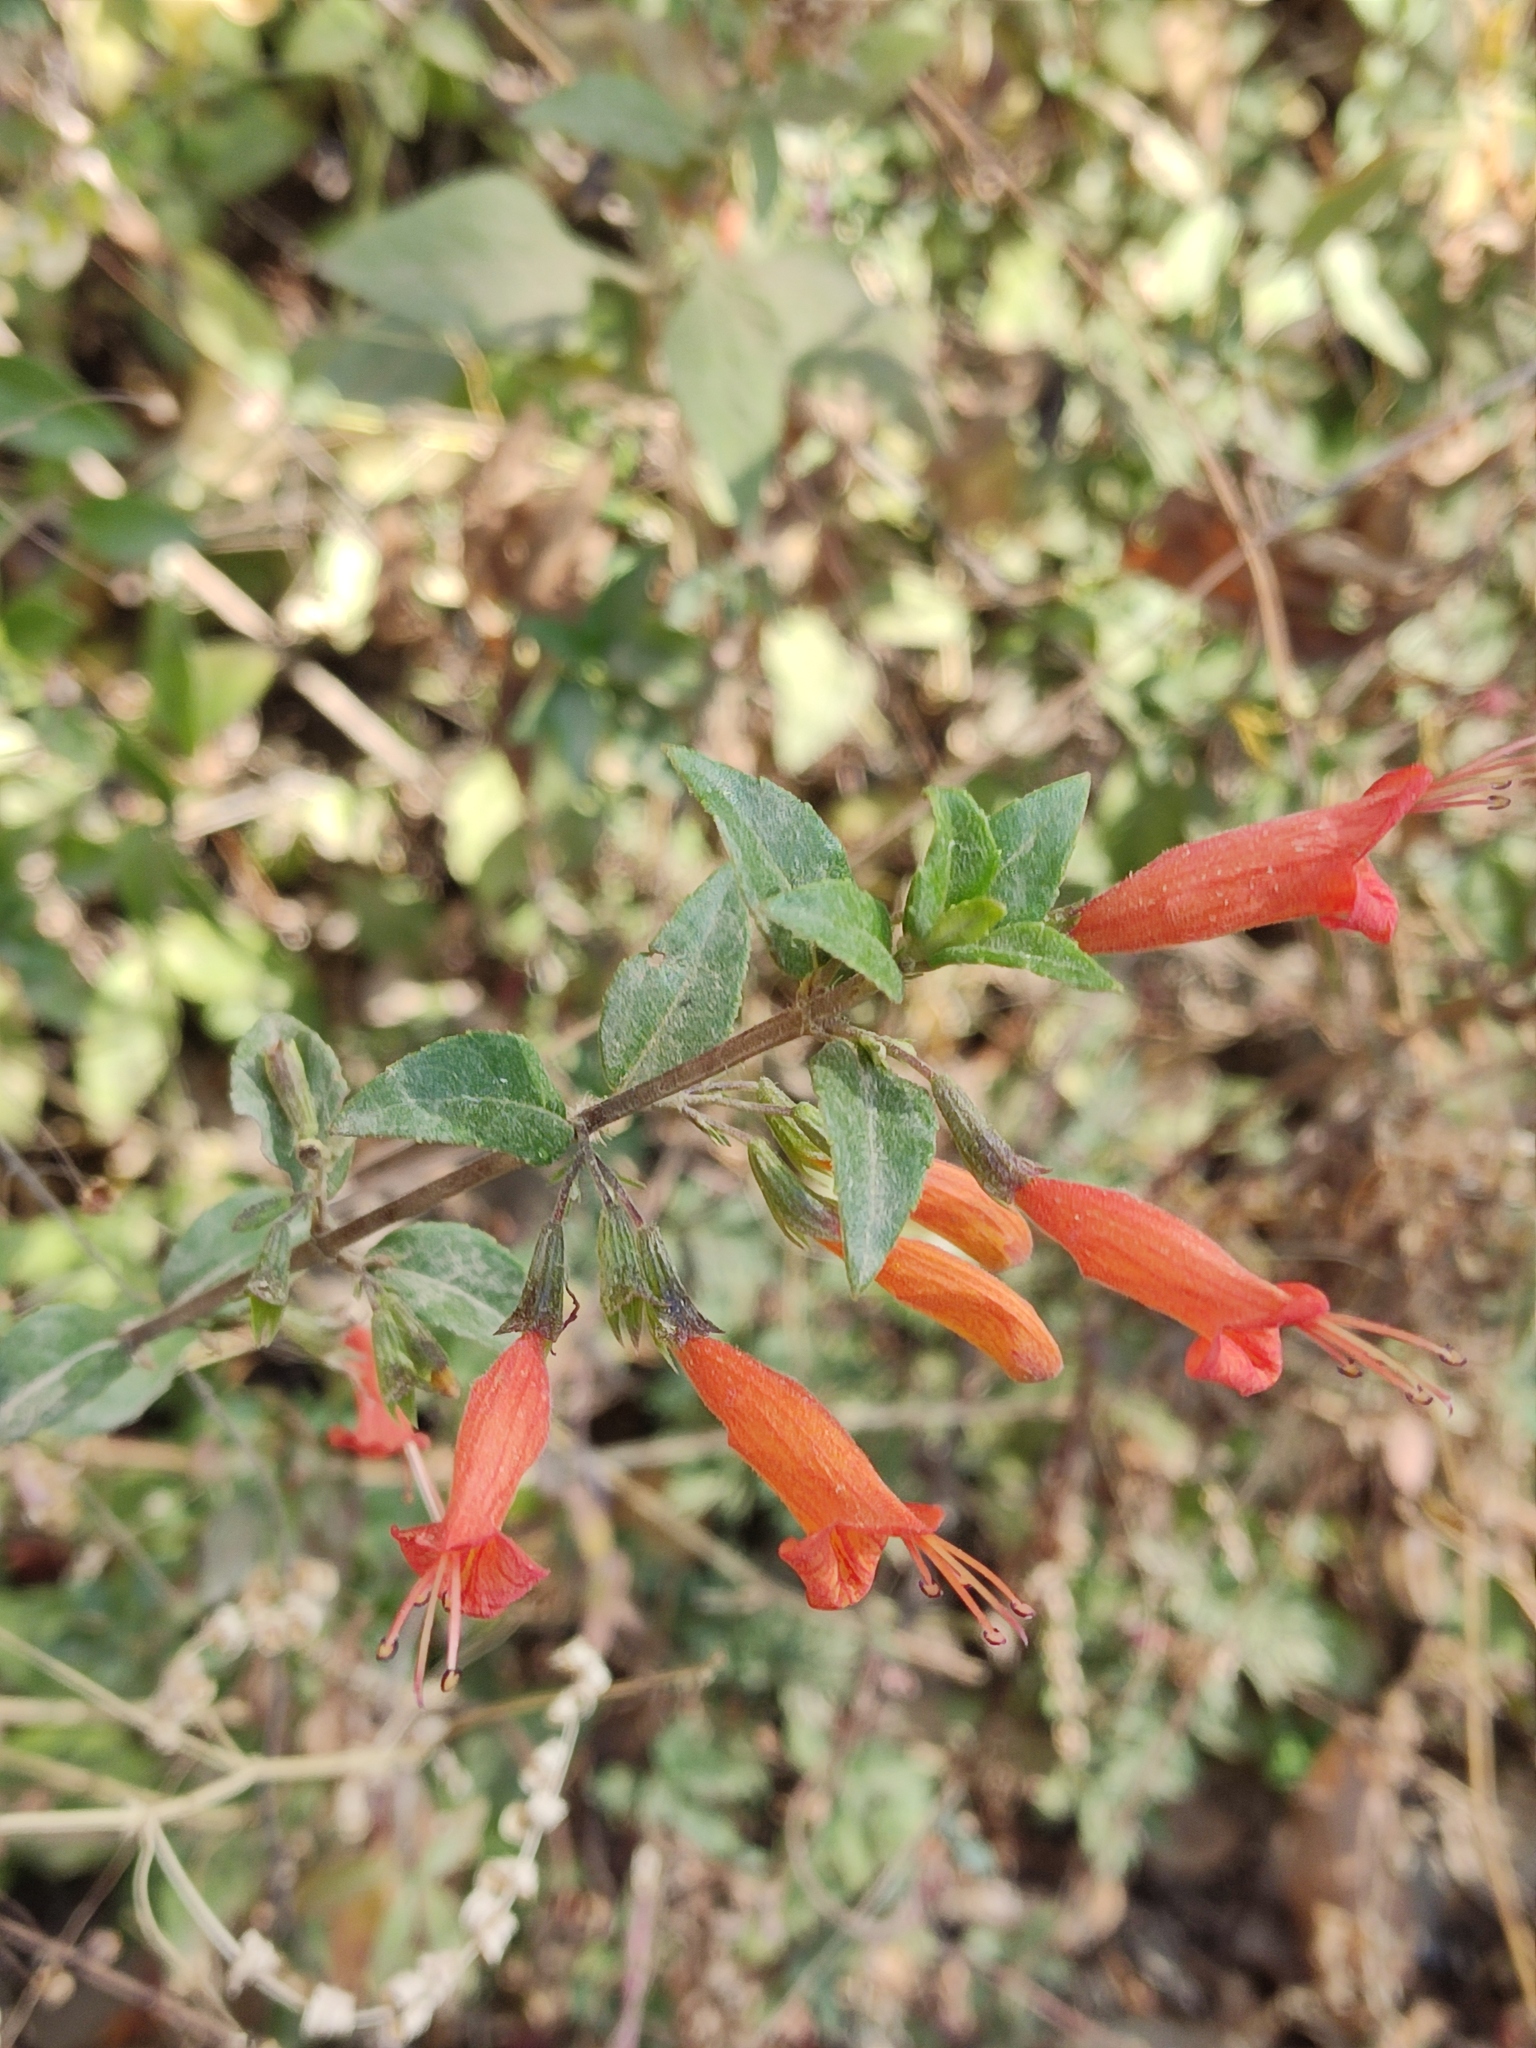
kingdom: Plantae
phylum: Tracheophyta
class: Magnoliopsida
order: Lamiales
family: Lamiaceae
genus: Clinopodium
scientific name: Clinopodium macrostemum
